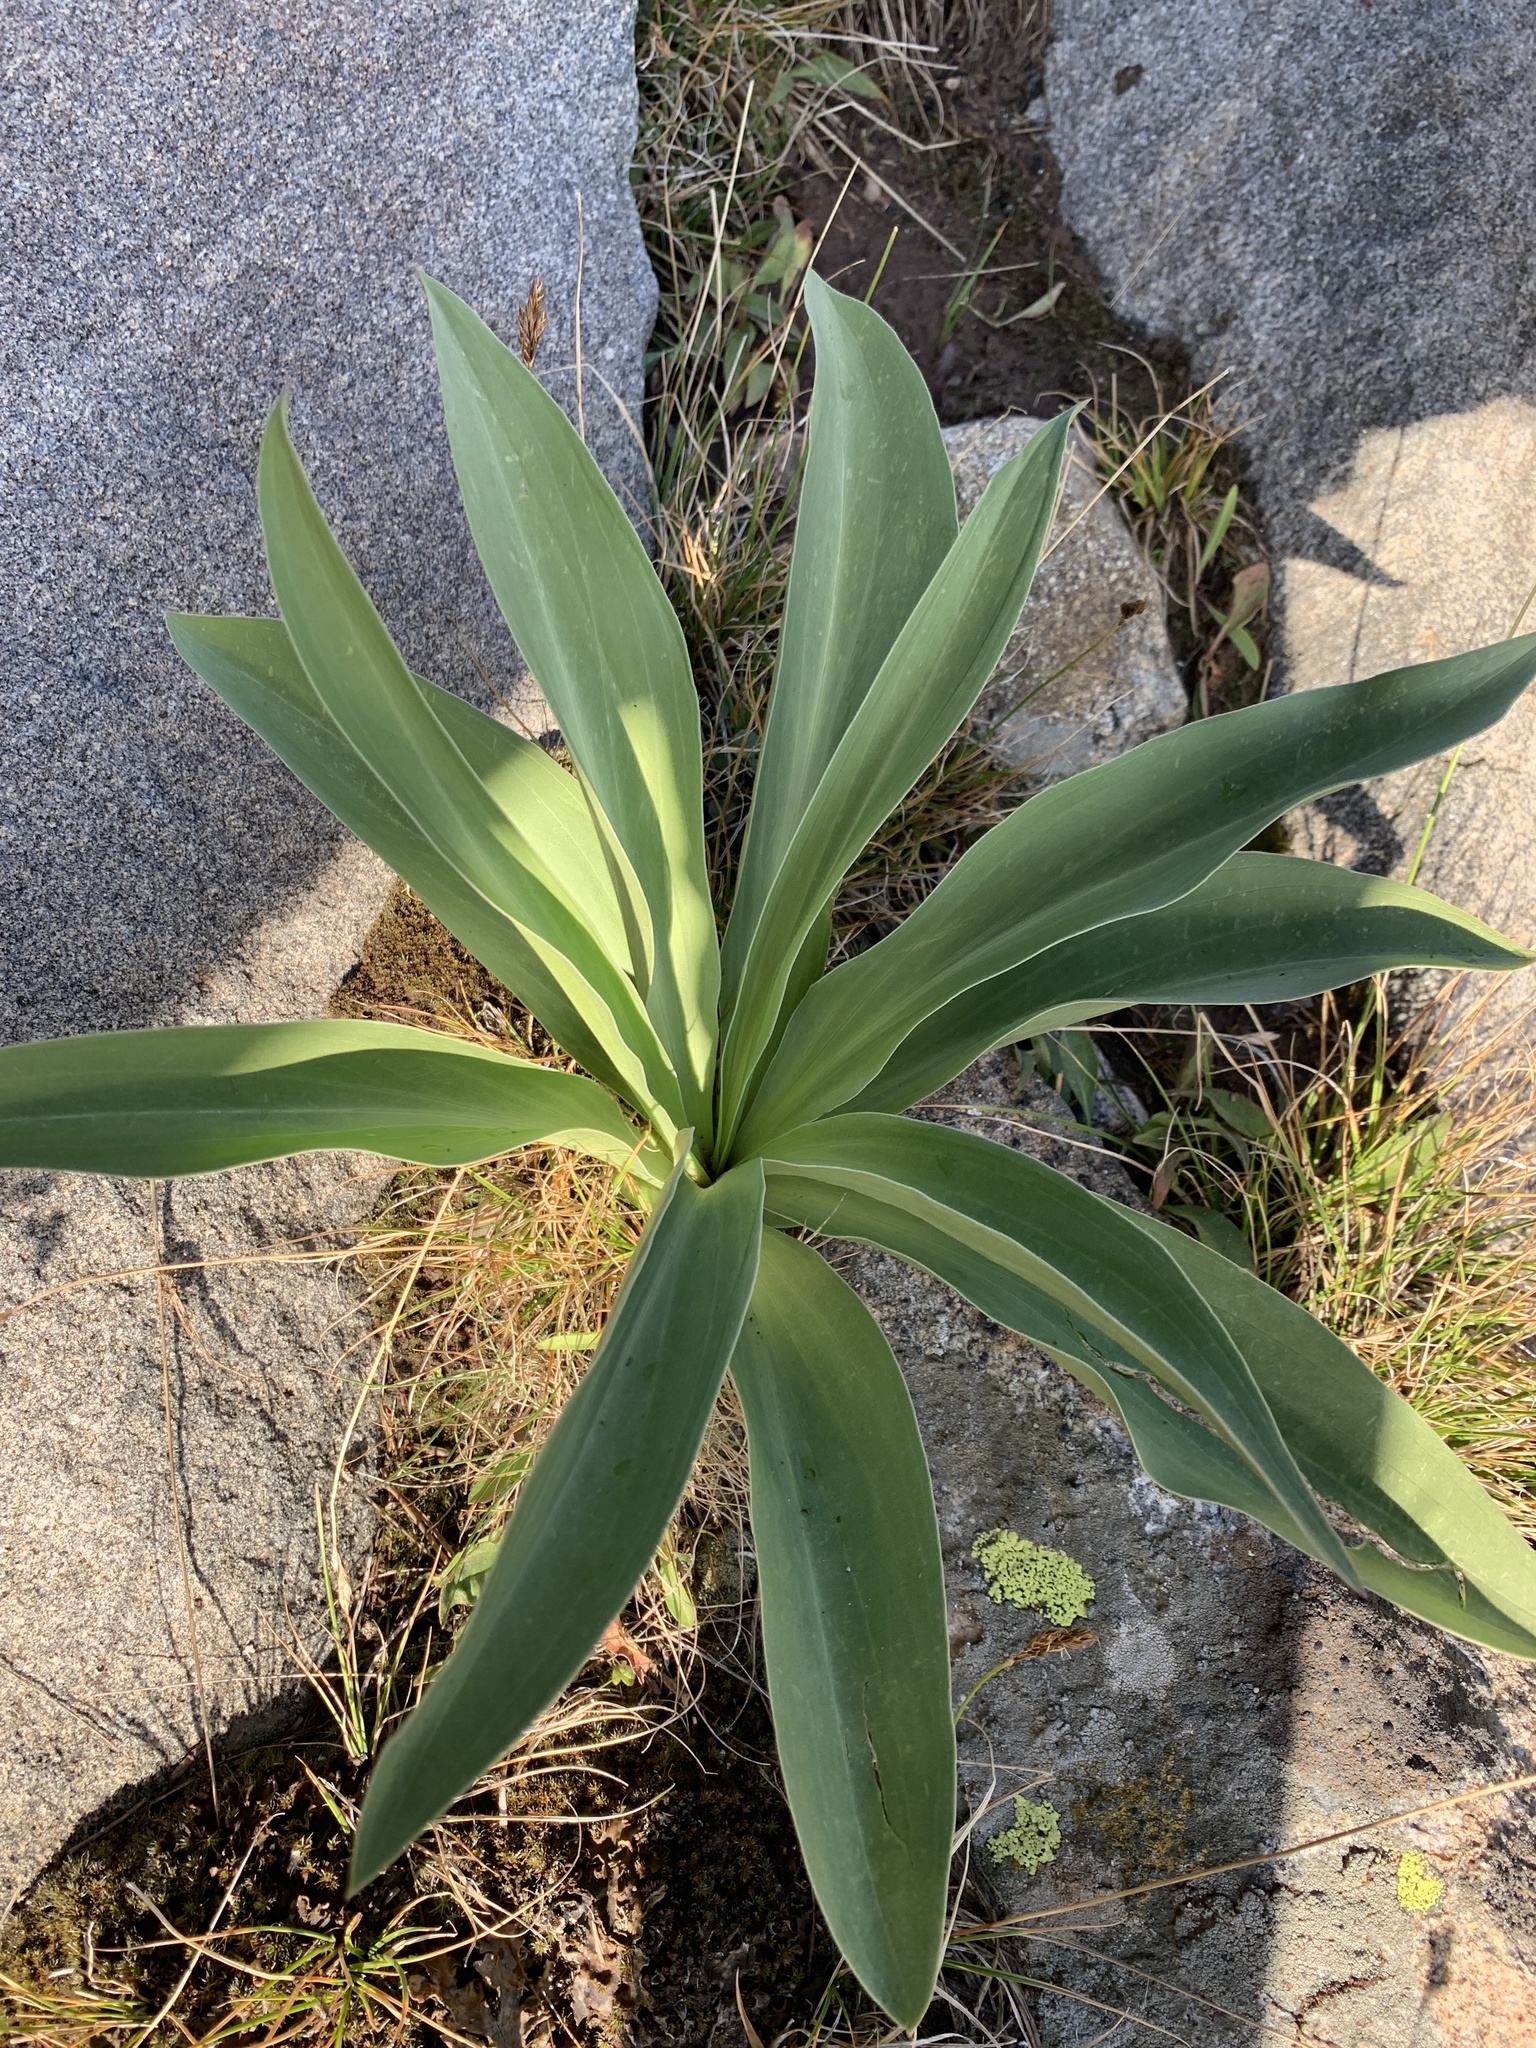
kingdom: Plantae
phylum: Tracheophyta
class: Magnoliopsida
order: Gentianales
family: Gentianaceae
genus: Frasera
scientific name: Frasera speciosa
